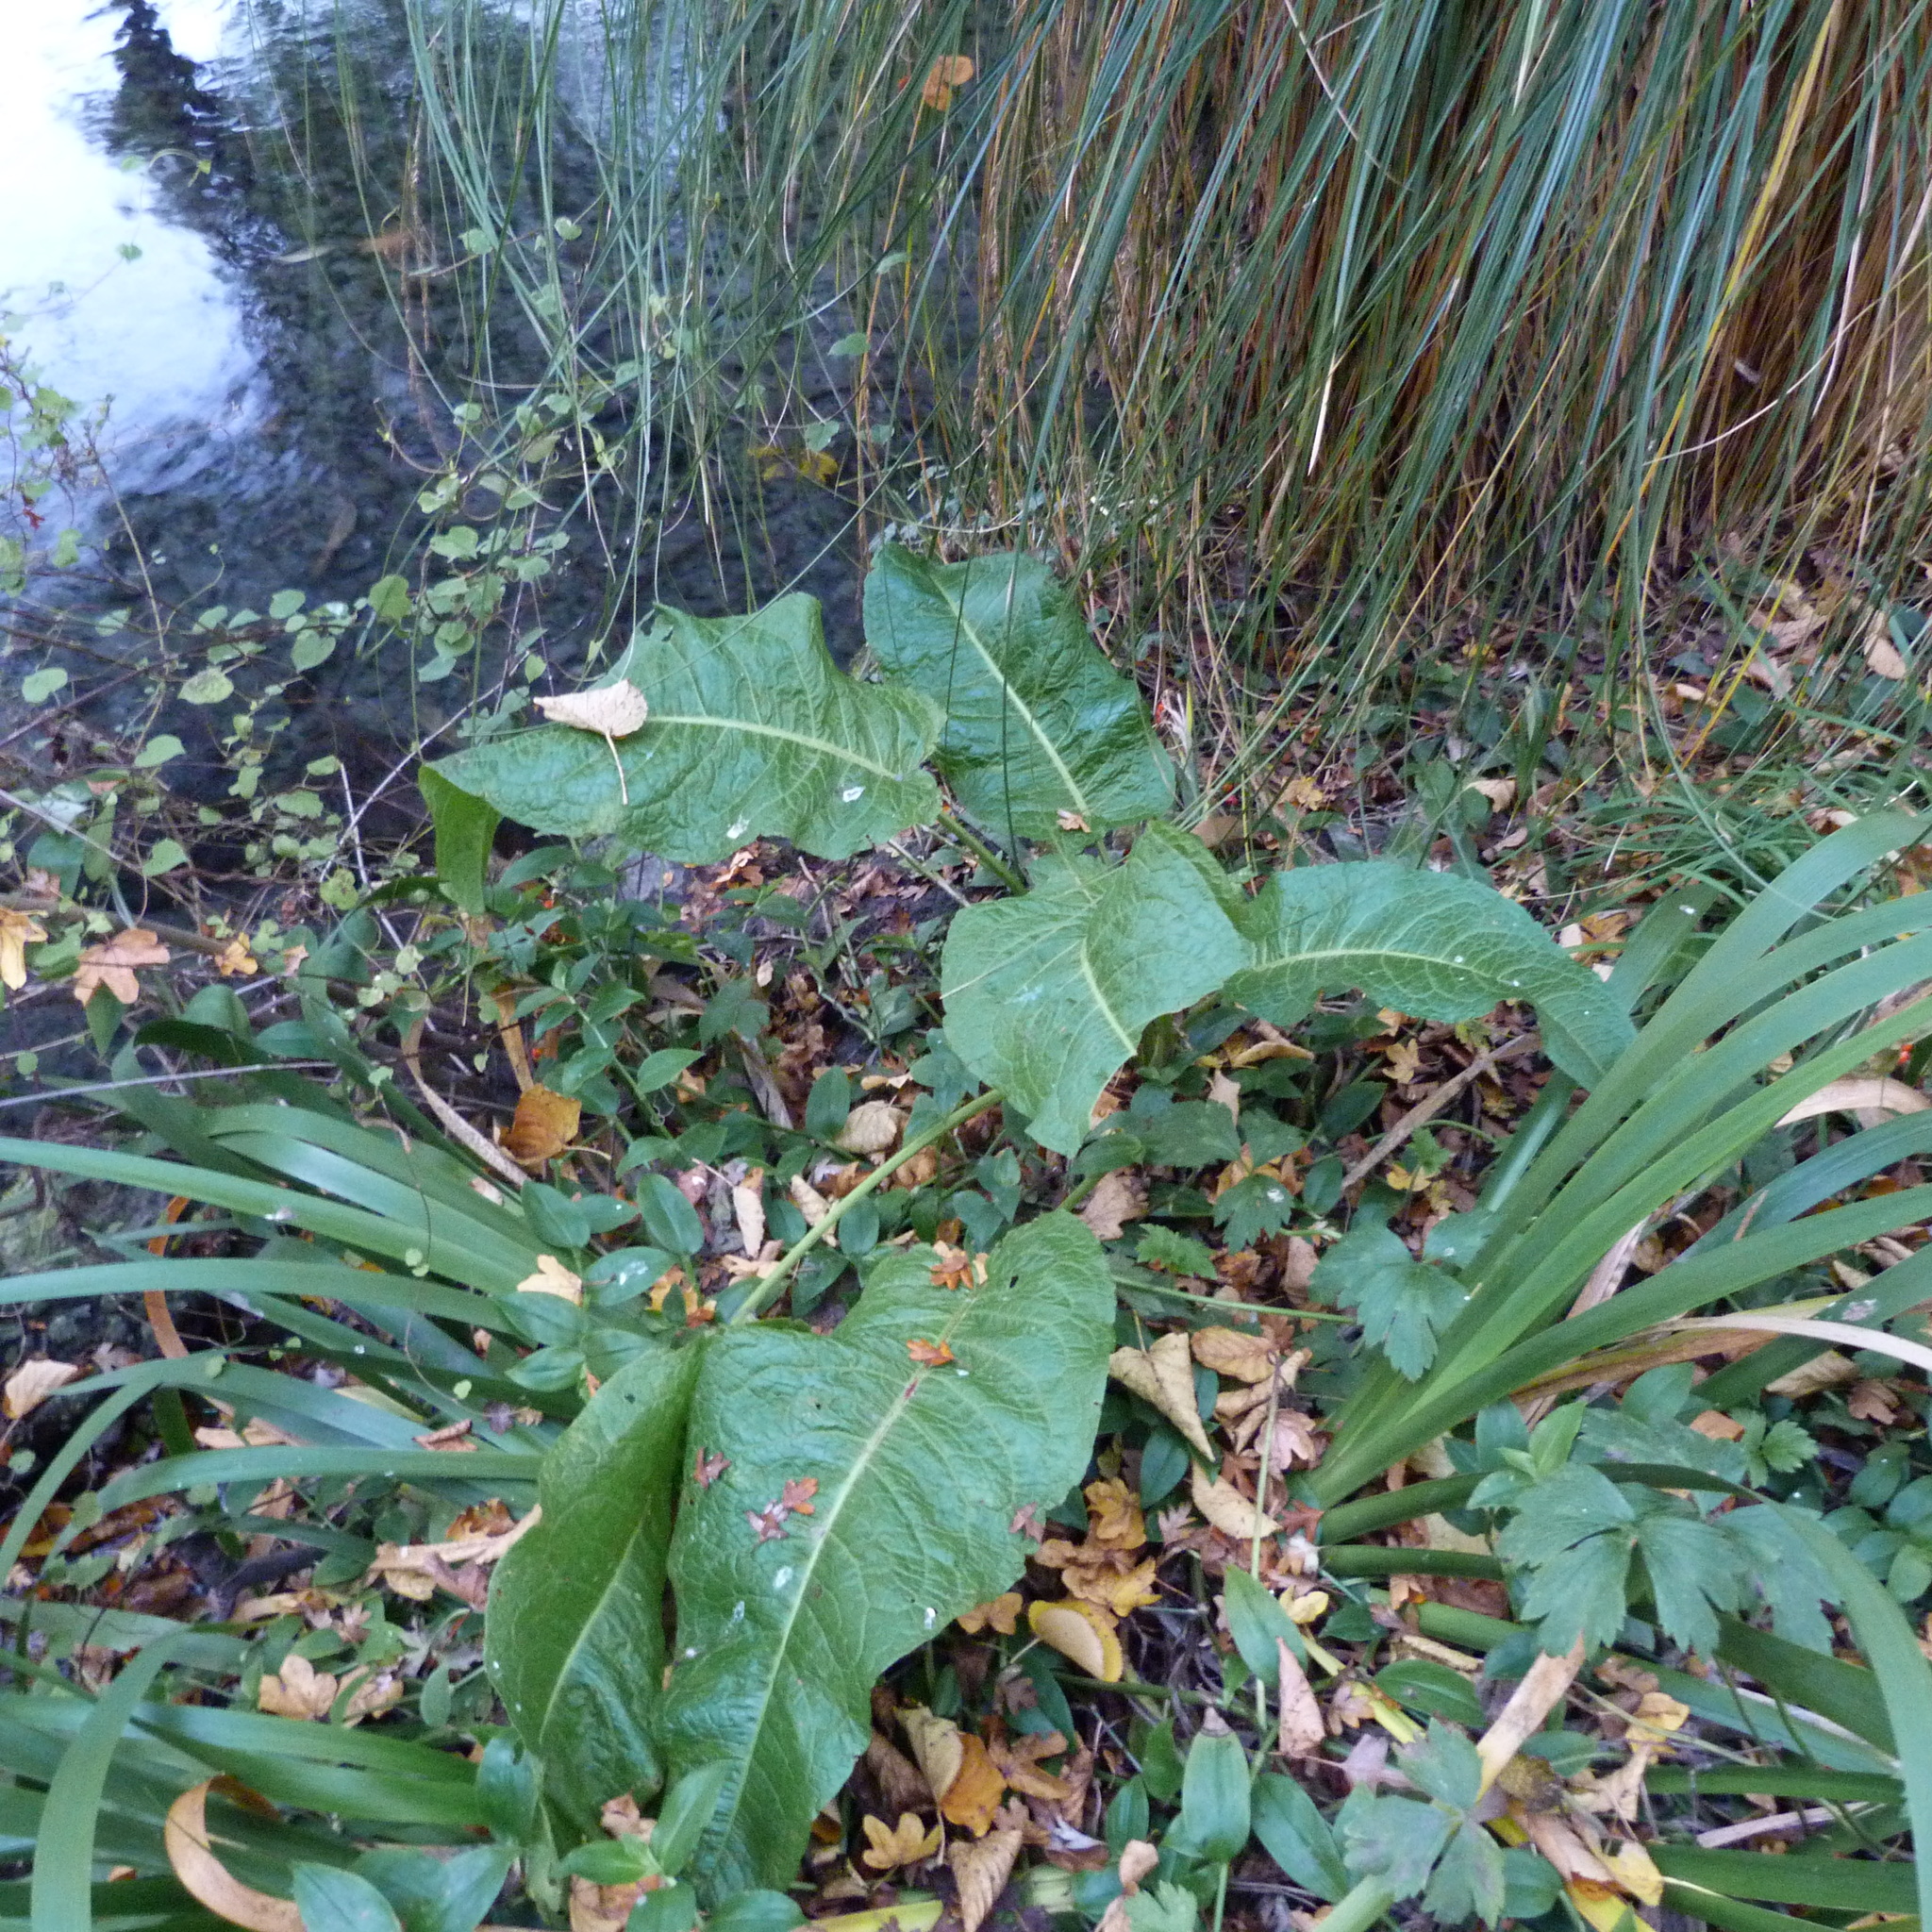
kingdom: Plantae
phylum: Tracheophyta
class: Magnoliopsida
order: Caryophyllales
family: Polygonaceae
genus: Rumex
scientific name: Rumex obtusifolius
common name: Bitter dock
